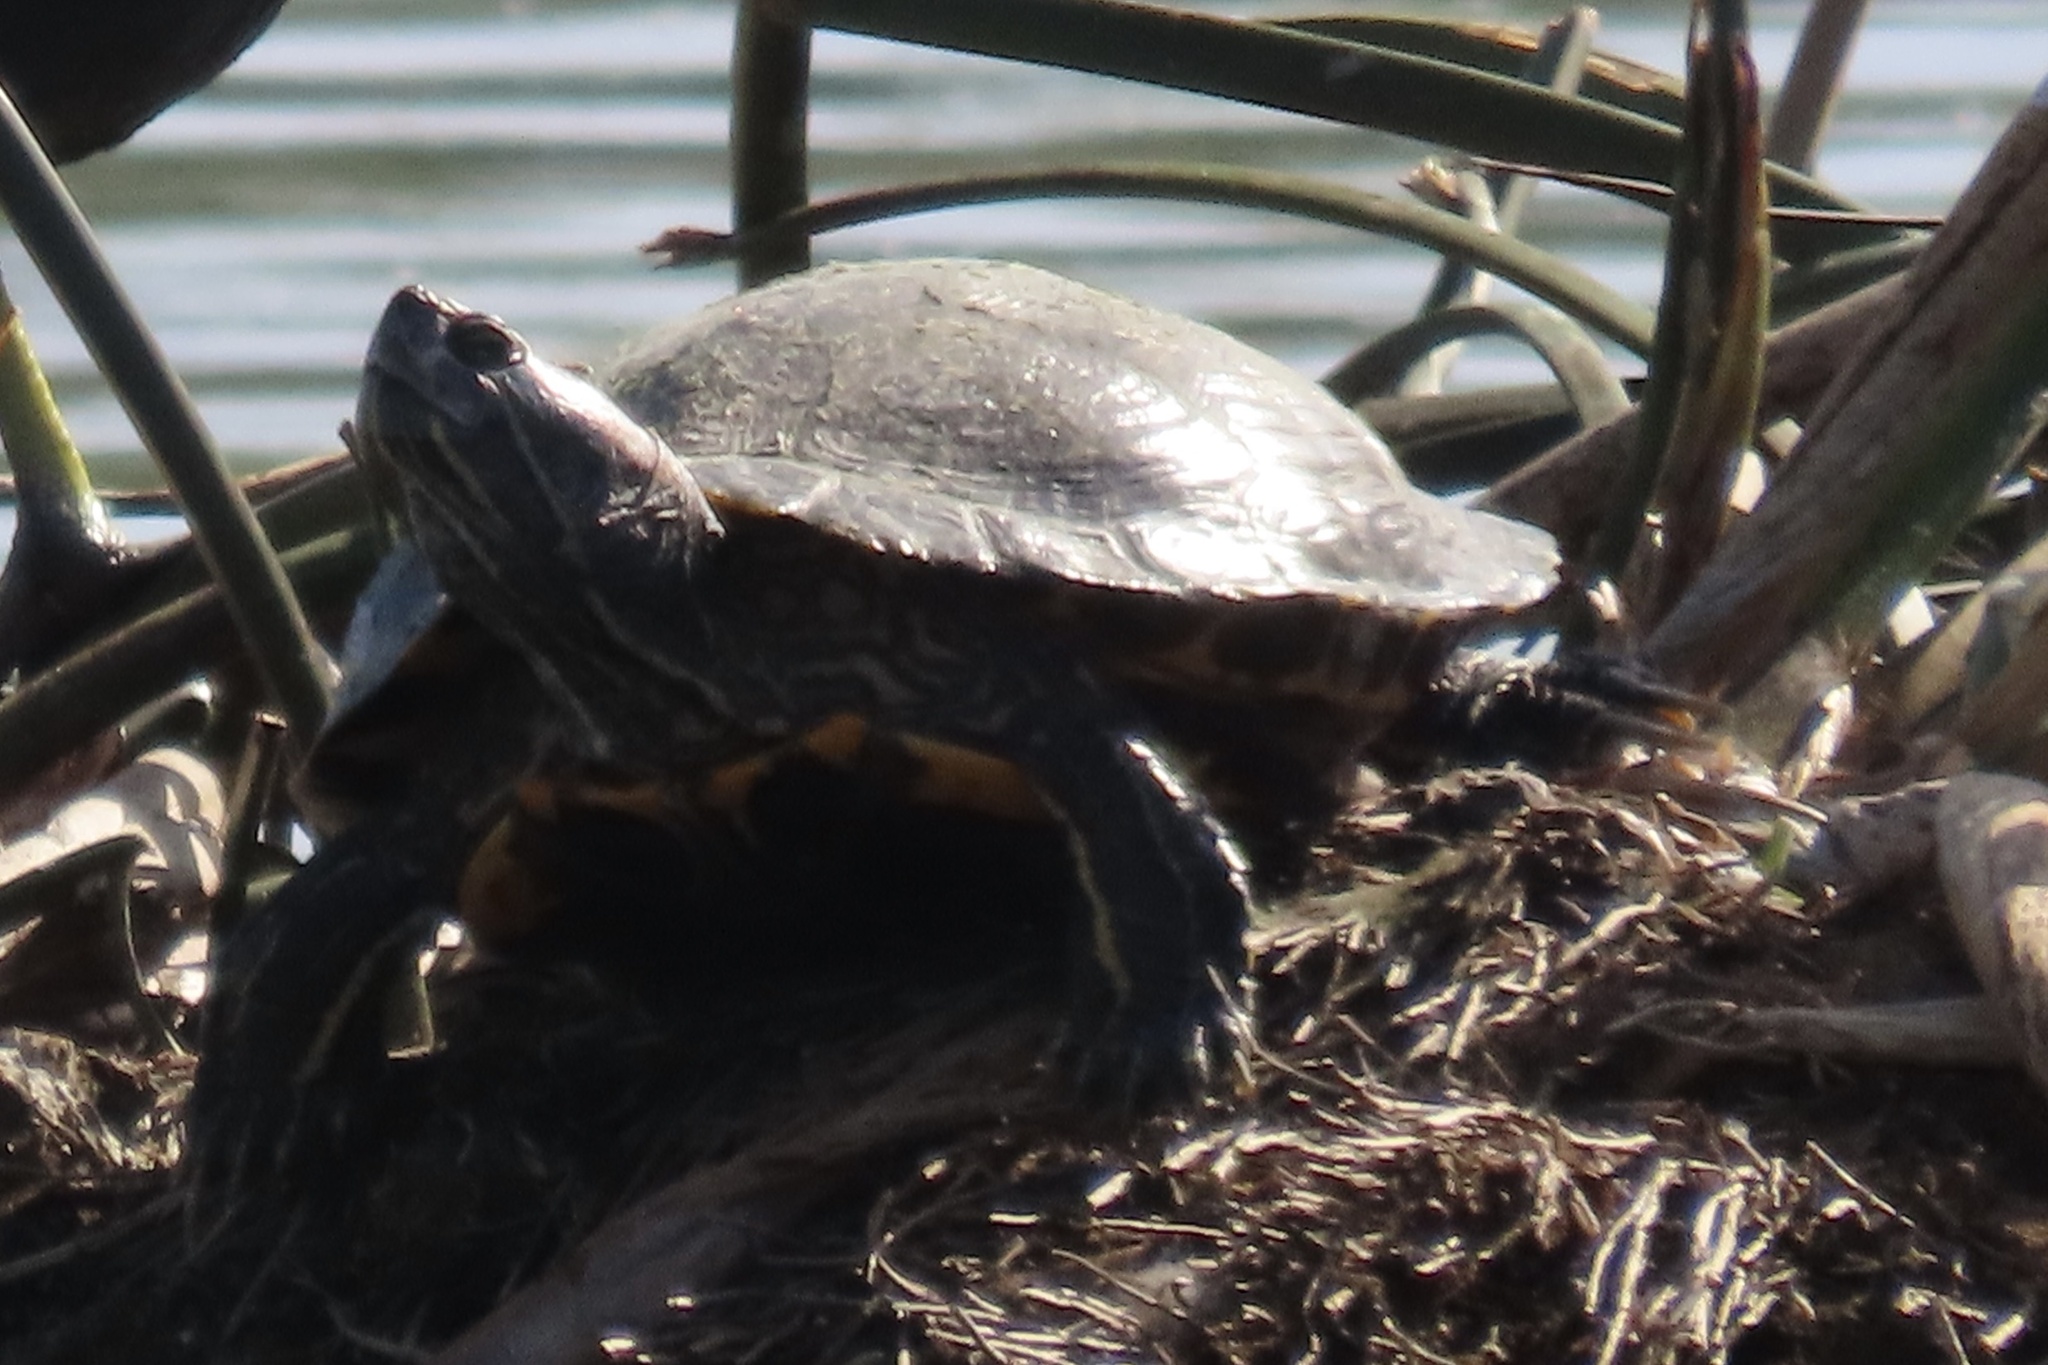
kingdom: Animalia
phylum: Chordata
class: Testudines
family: Emydidae
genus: Trachemys
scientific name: Trachemys scripta
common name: Slider
